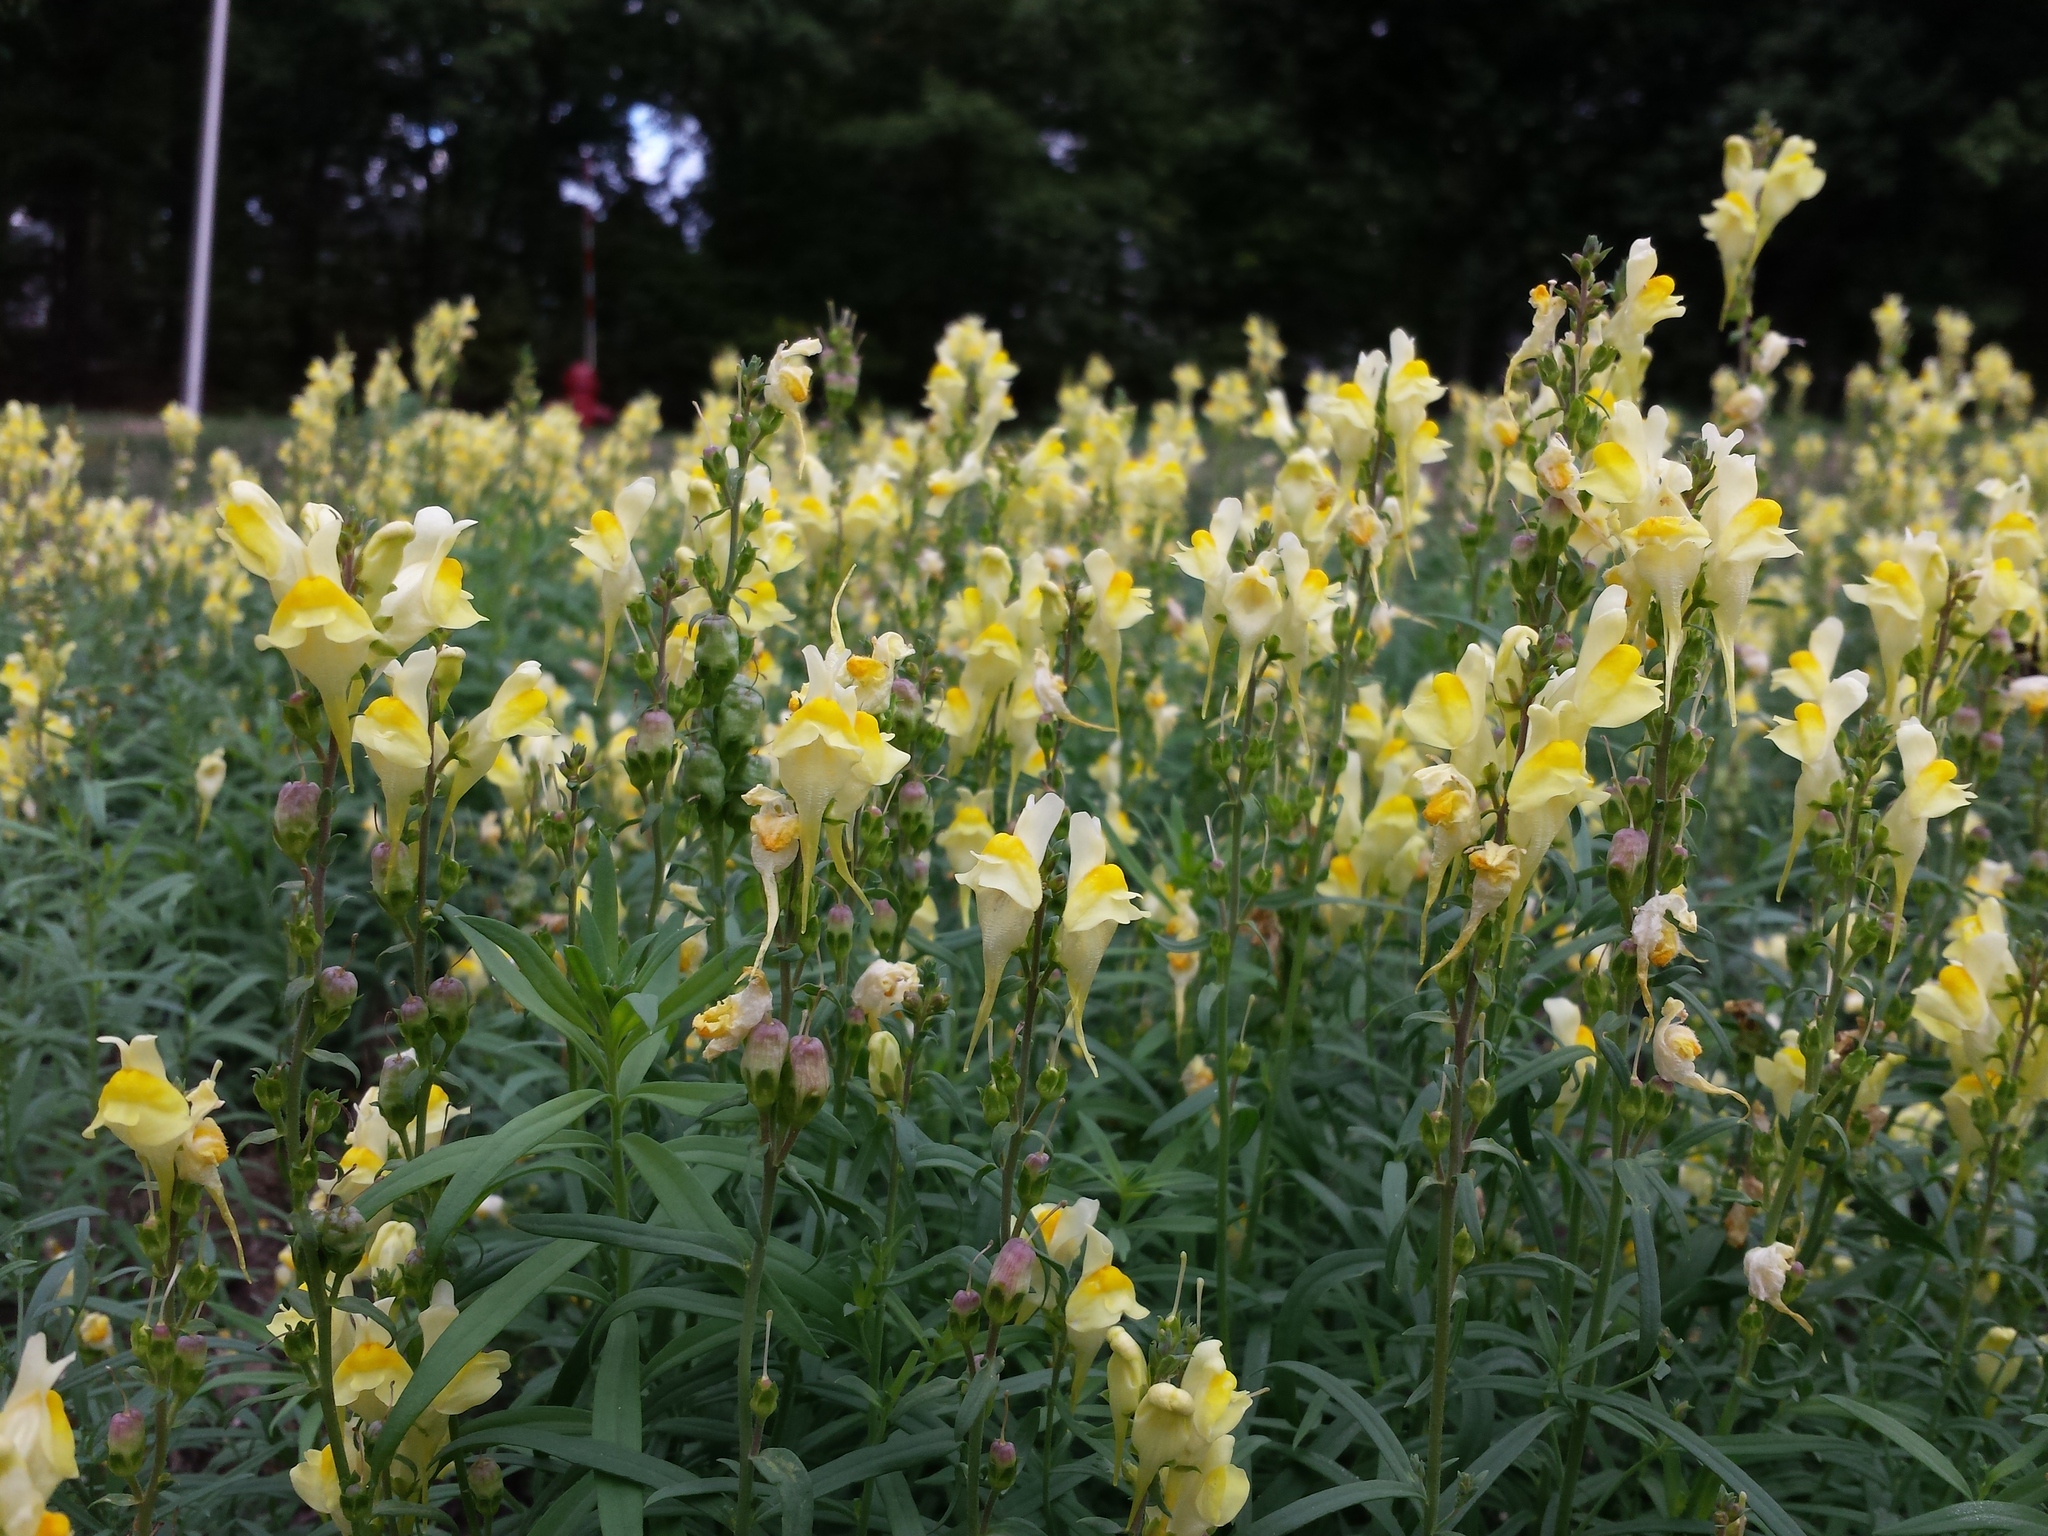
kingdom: Plantae
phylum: Tracheophyta
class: Magnoliopsida
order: Lamiales
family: Plantaginaceae
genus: Linaria
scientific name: Linaria vulgaris
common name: Butter and eggs
